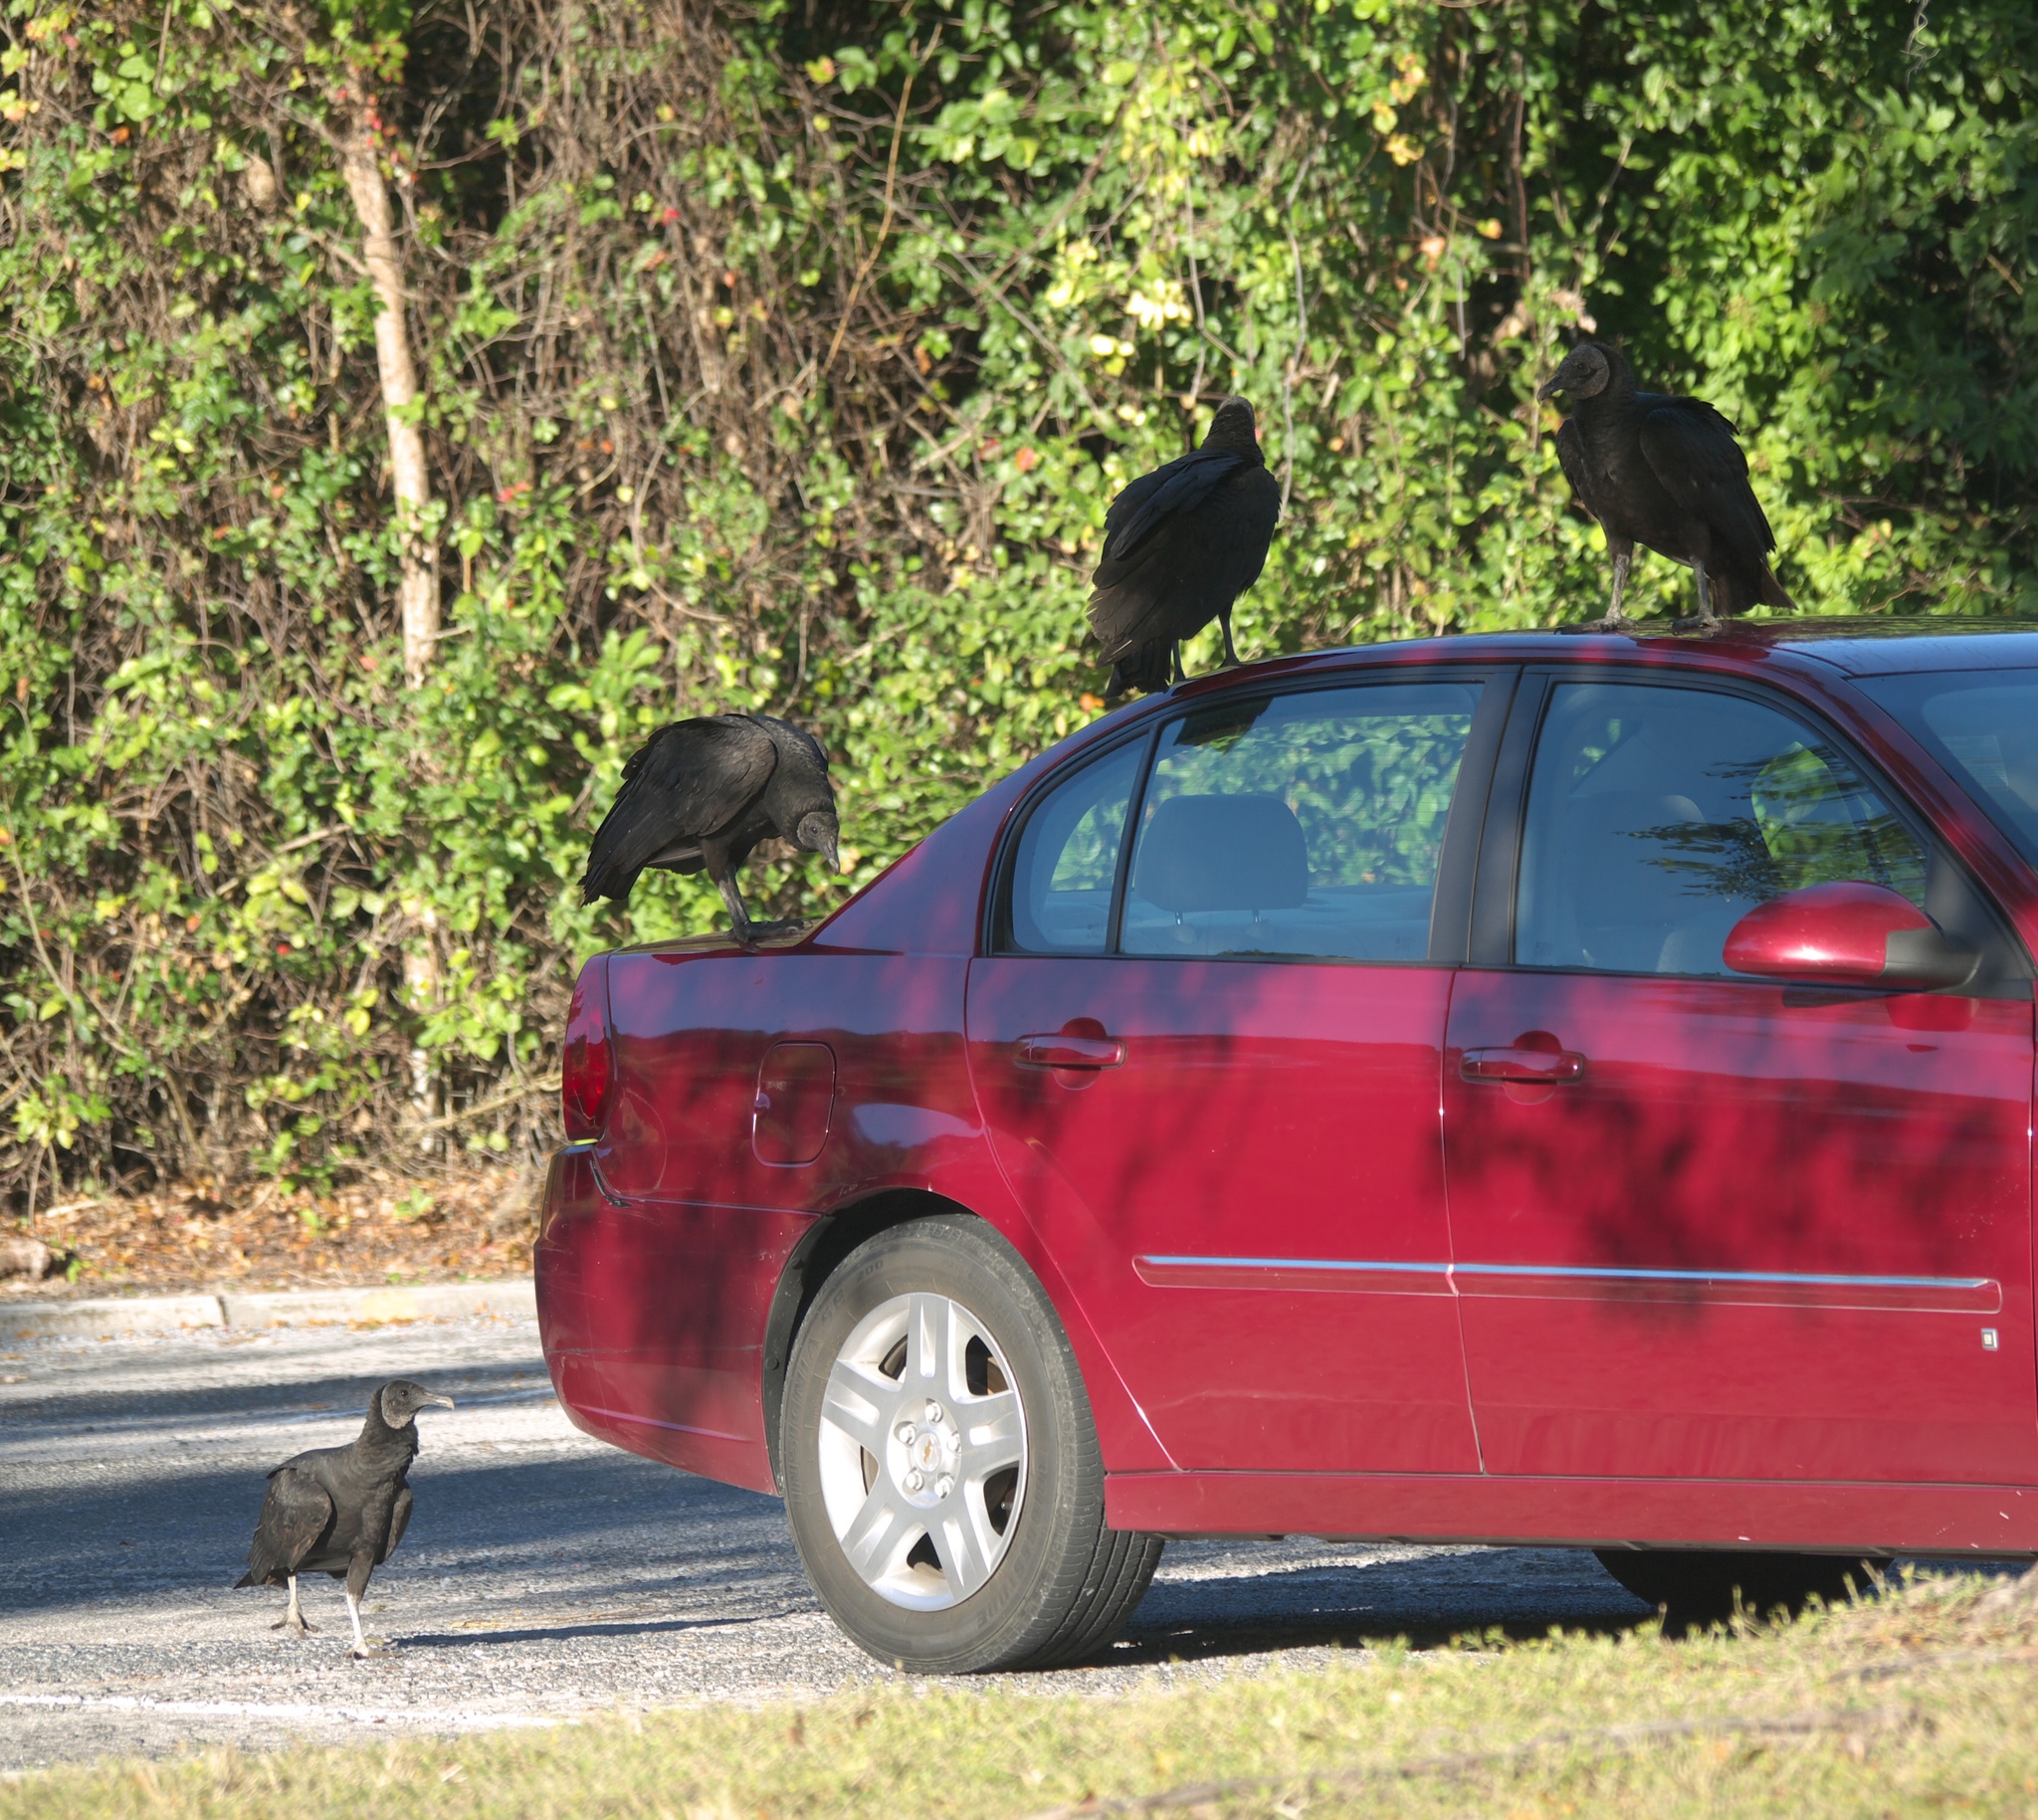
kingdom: Animalia
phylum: Chordata
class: Aves
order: Accipitriformes
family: Cathartidae
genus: Coragyps
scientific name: Coragyps atratus
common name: Black vulture
